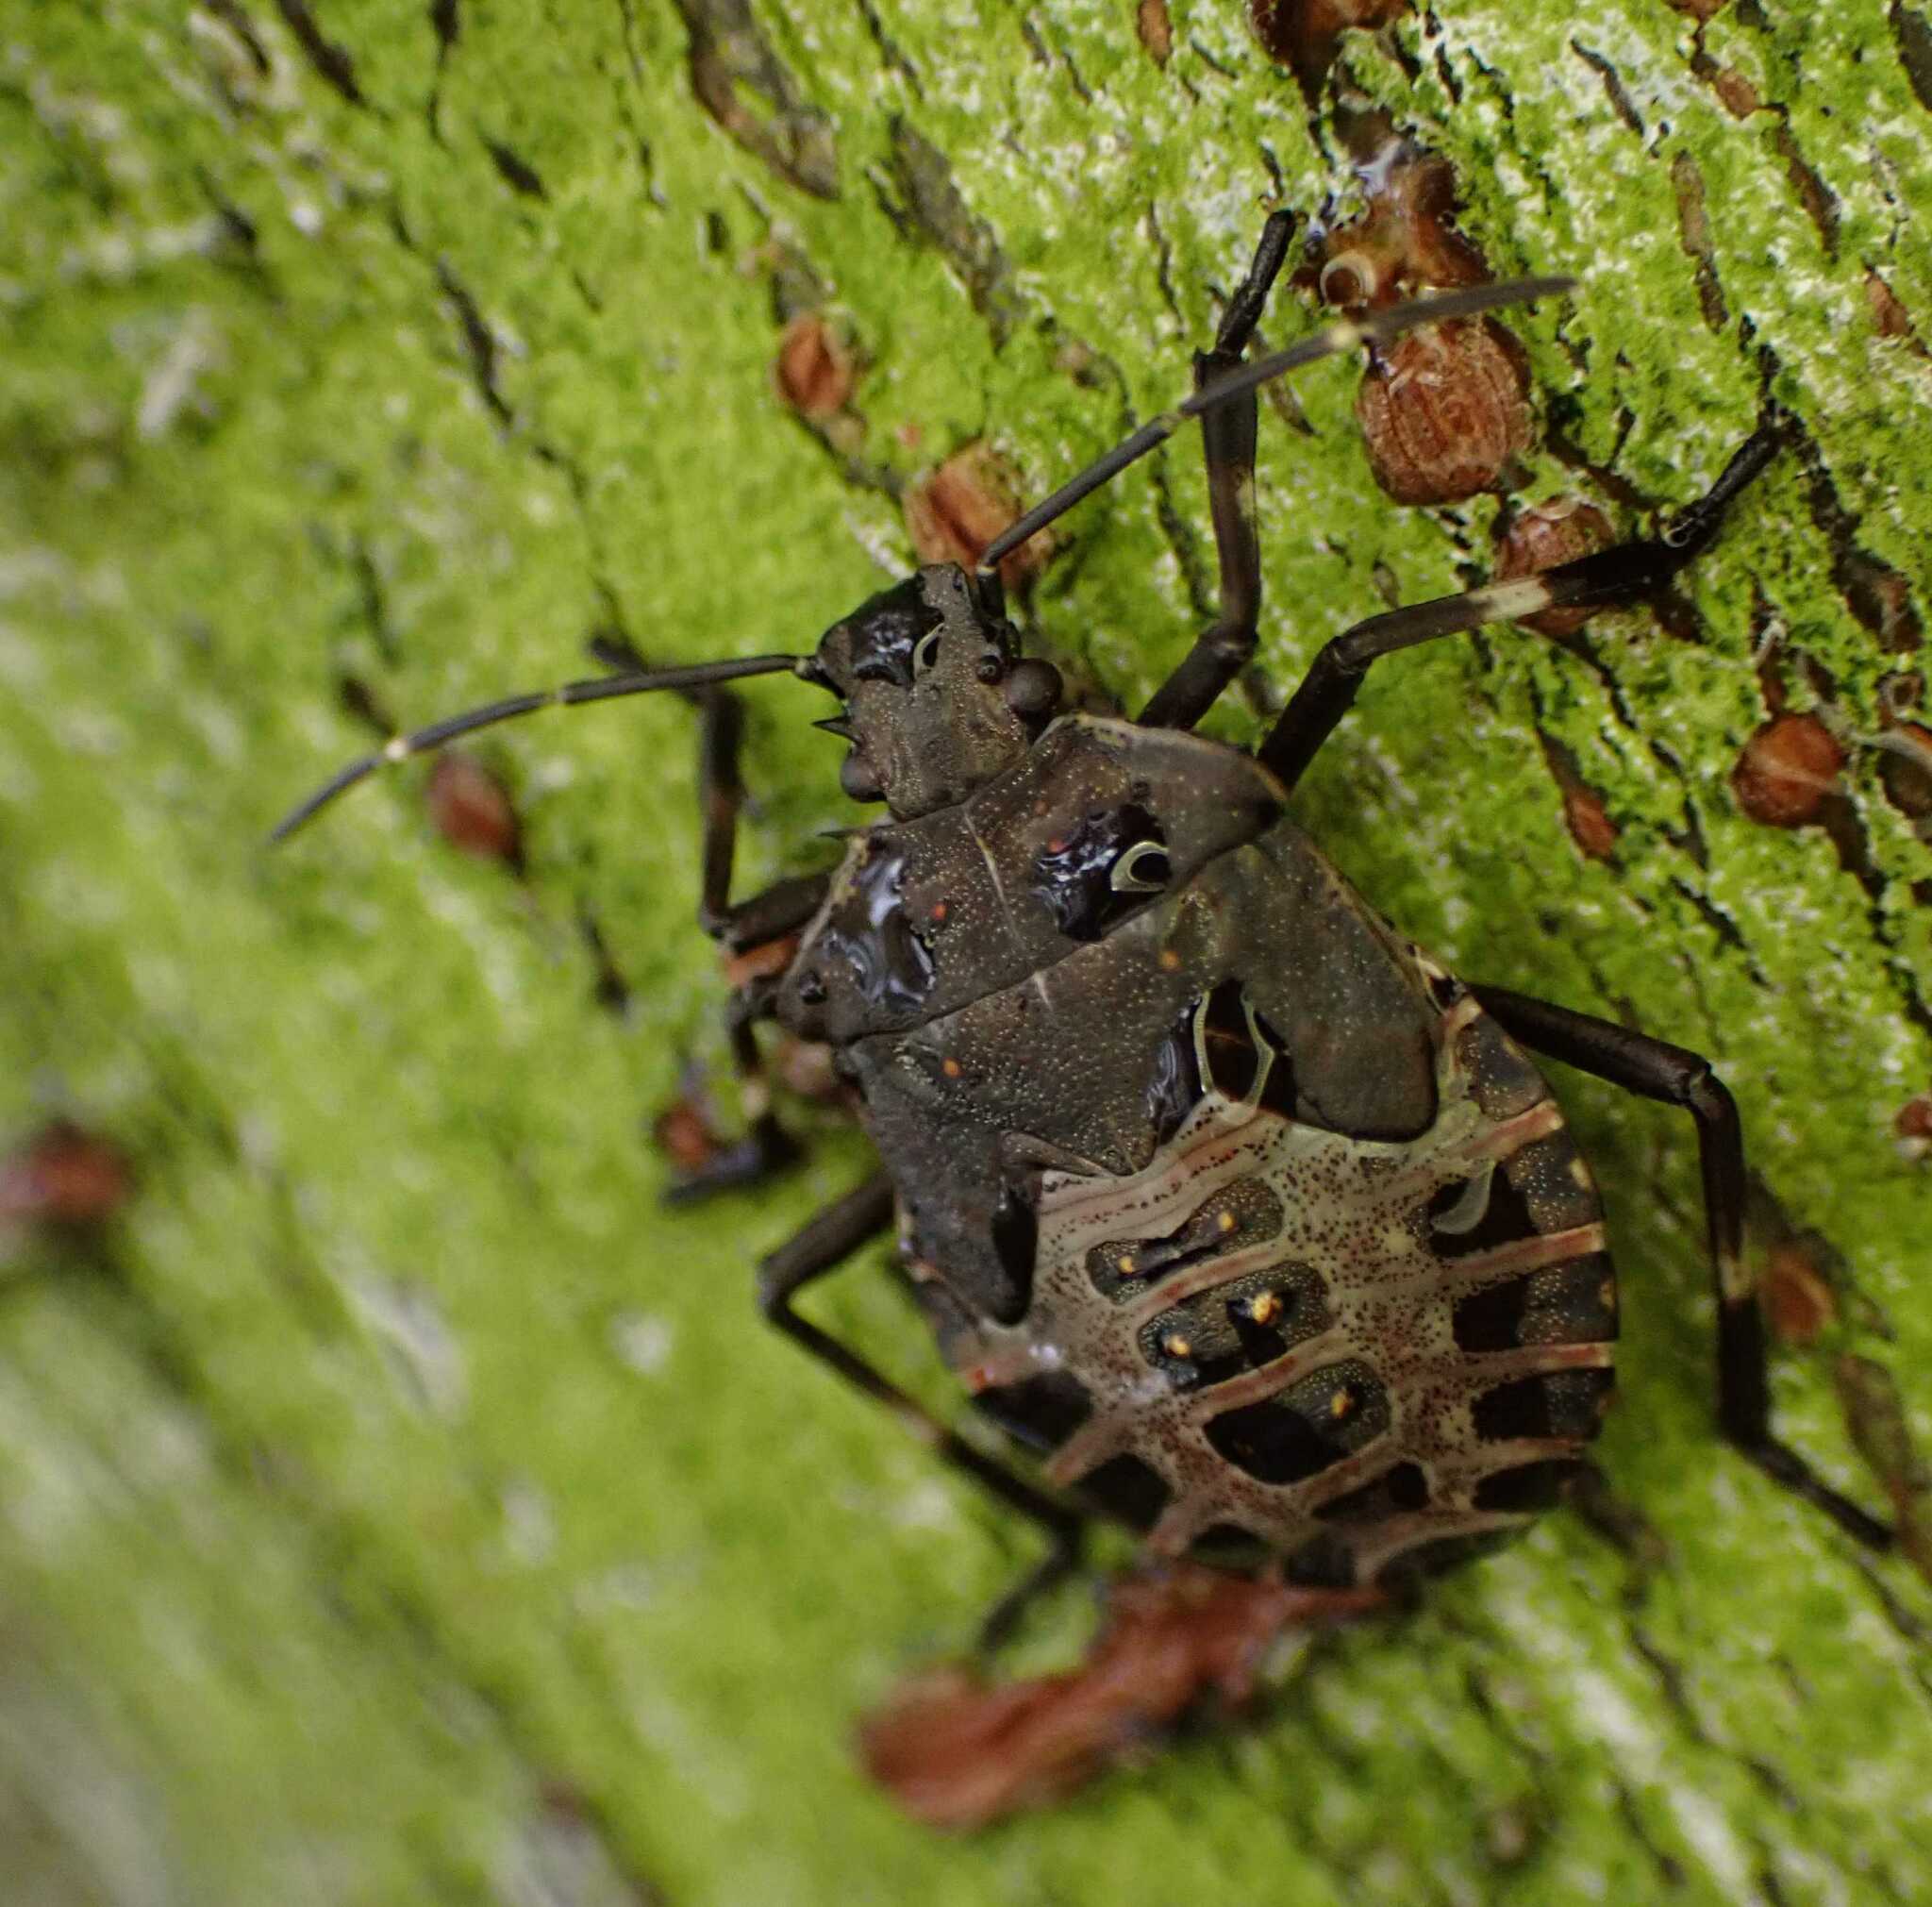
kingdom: Animalia
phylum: Arthropoda
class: Insecta
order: Hemiptera
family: Pentatomidae
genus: Halyomorpha
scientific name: Halyomorpha halys
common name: Brown marmorated stink bug
